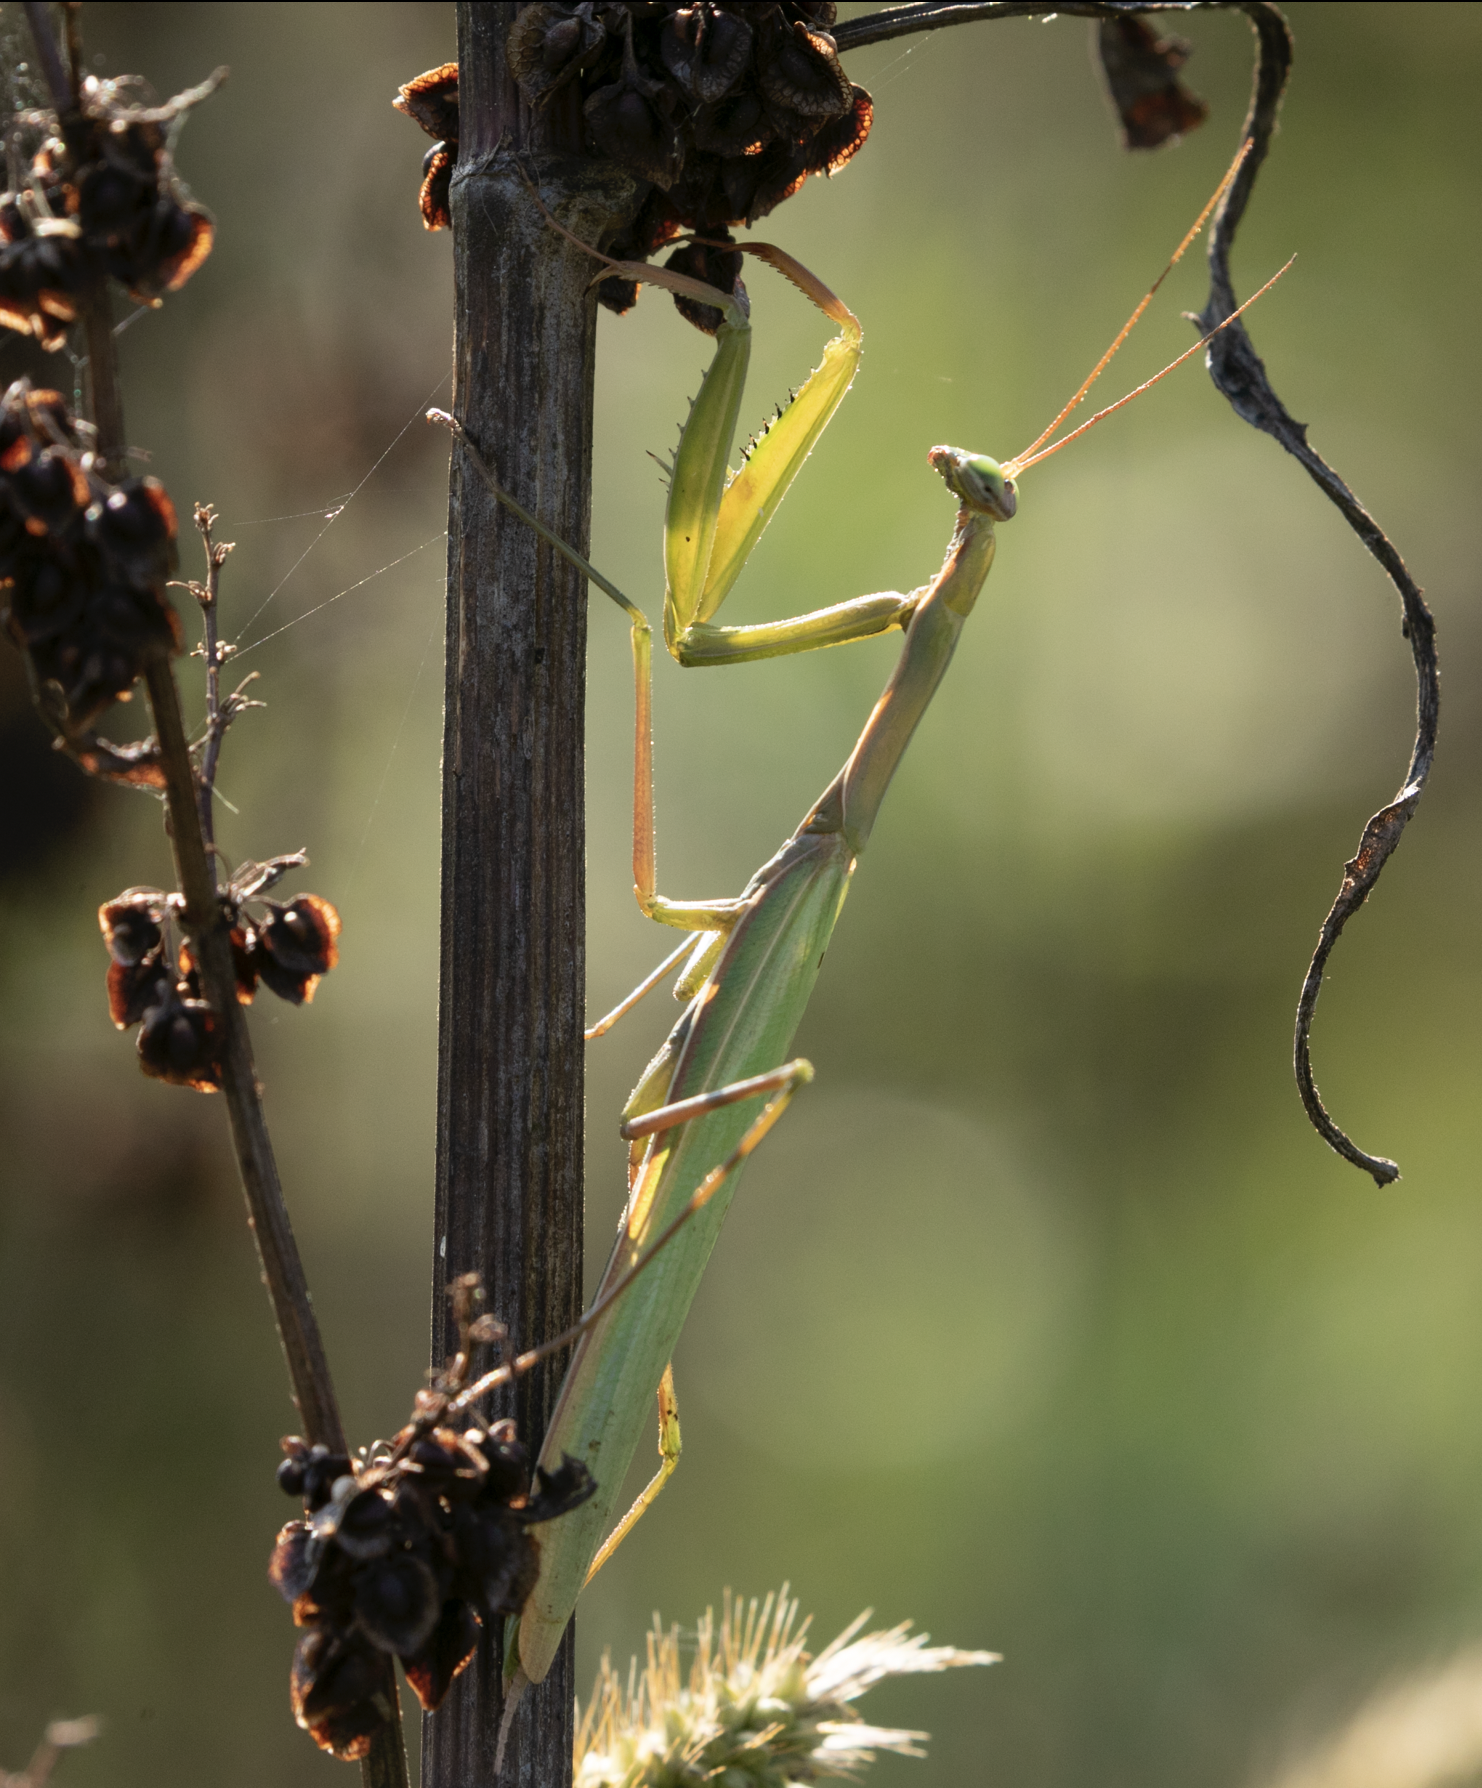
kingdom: Animalia
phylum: Arthropoda
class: Insecta
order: Mantodea
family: Mantidae
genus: Mantis
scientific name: Mantis religiosa
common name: Praying mantis
